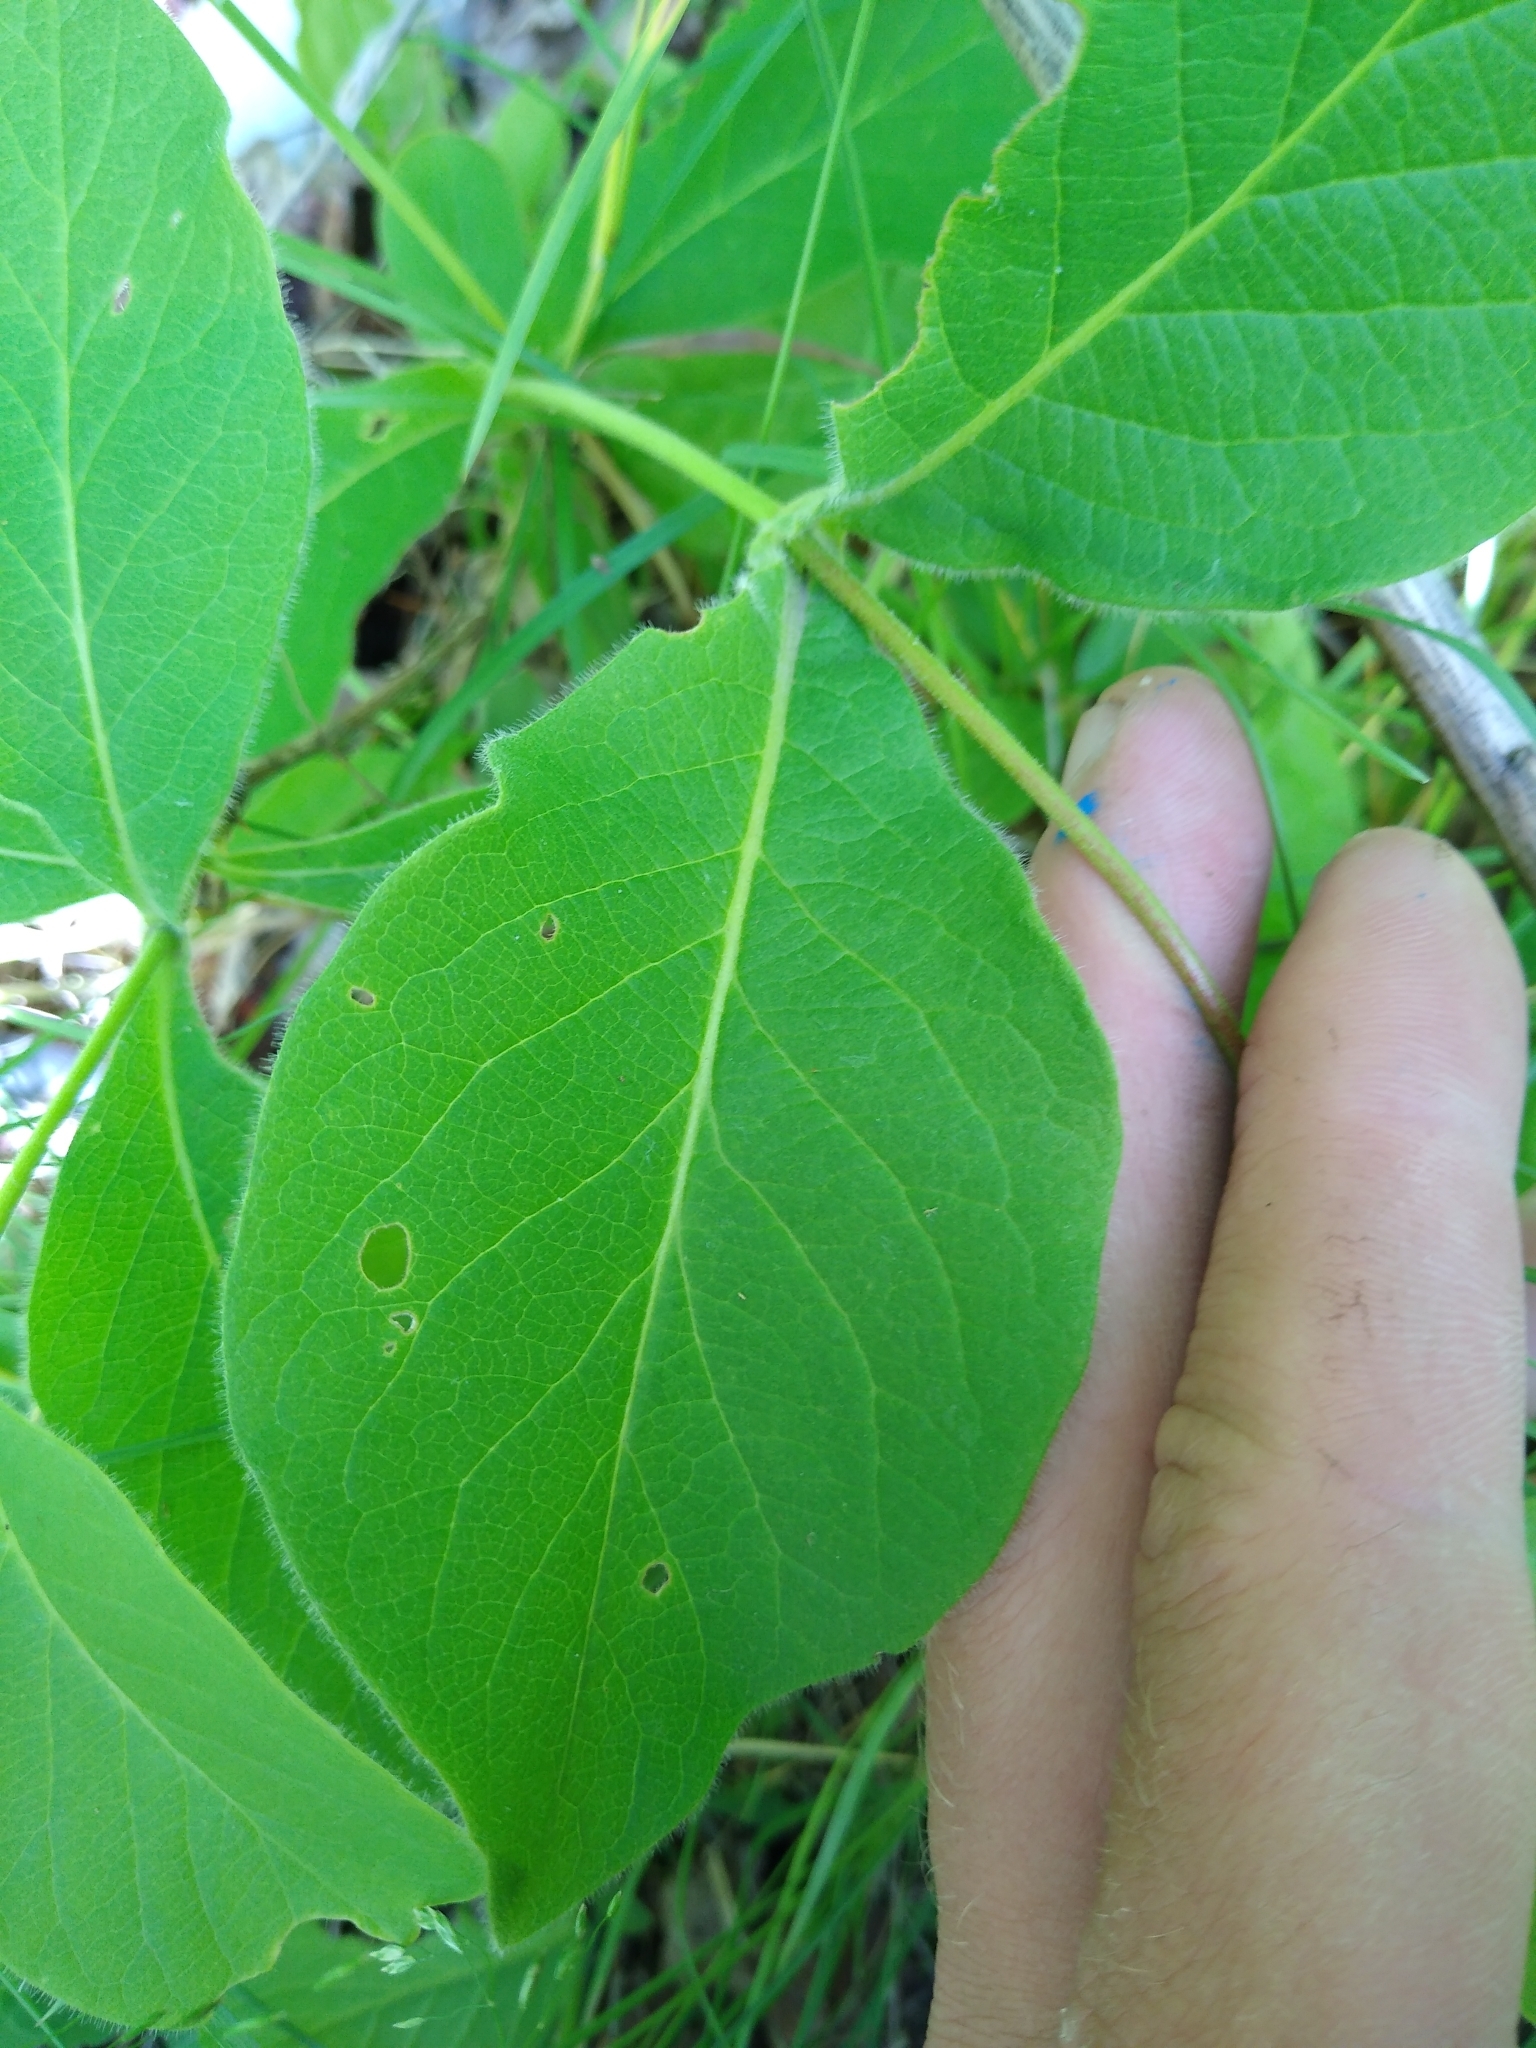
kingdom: Plantae
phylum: Tracheophyta
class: Magnoliopsida
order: Dipsacales
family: Caprifoliaceae
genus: Lonicera
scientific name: Lonicera hirsuta
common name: Hairy honeysuckle
